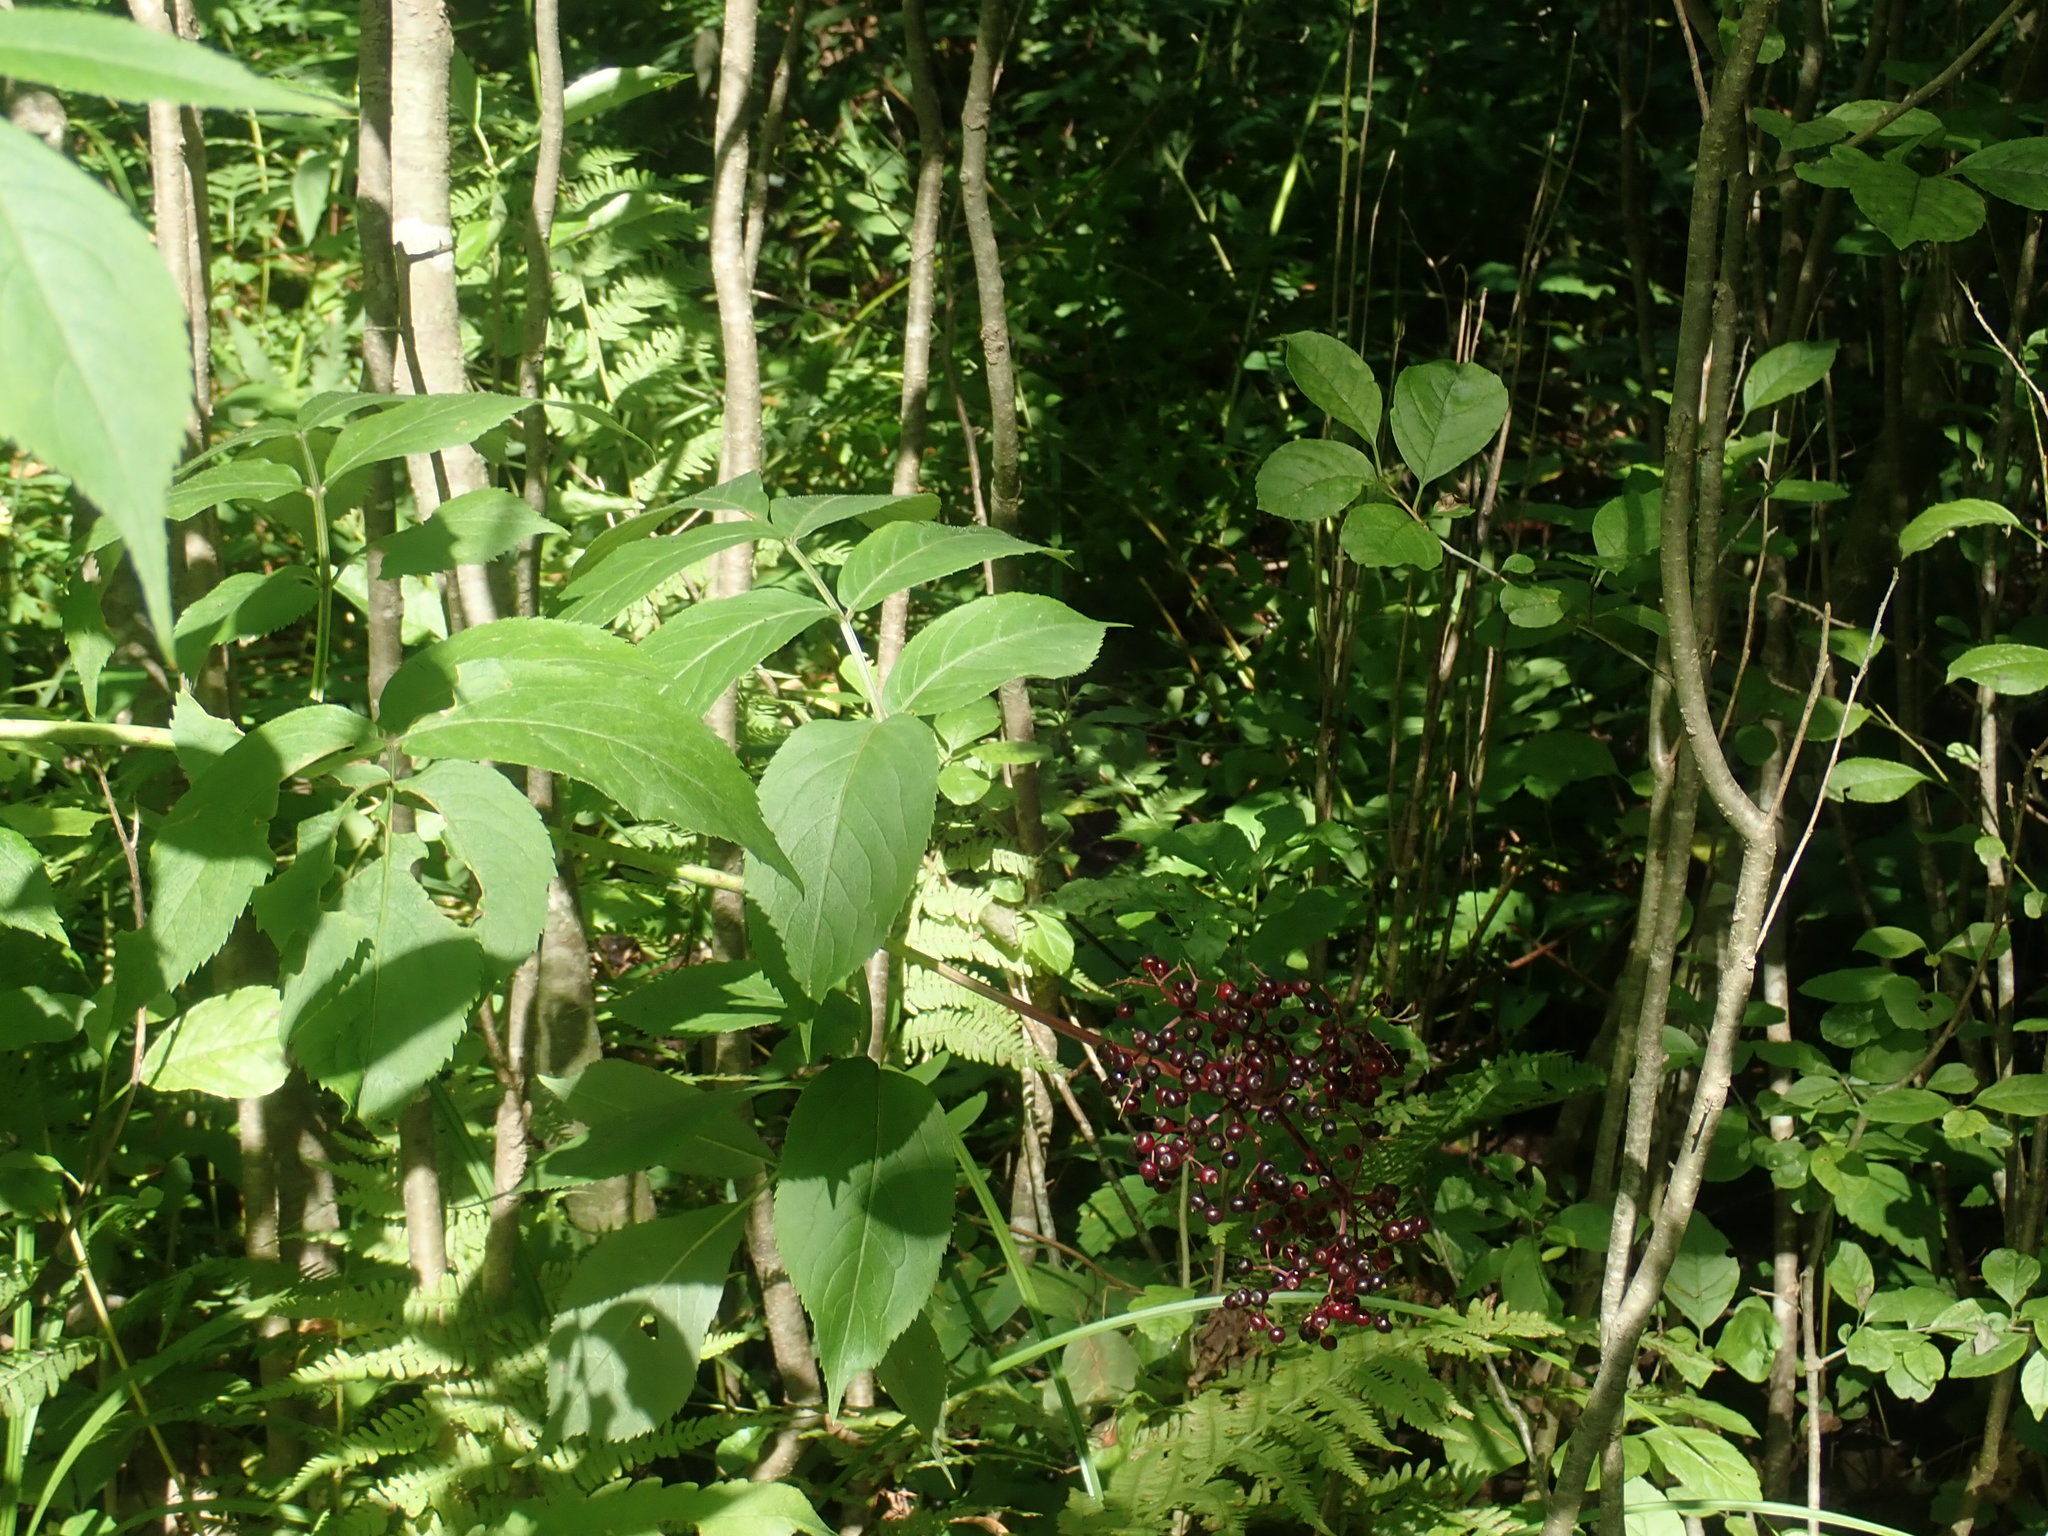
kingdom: Plantae
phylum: Tracheophyta
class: Magnoliopsida
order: Dipsacales
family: Viburnaceae
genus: Sambucus
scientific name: Sambucus canadensis
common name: American elder
